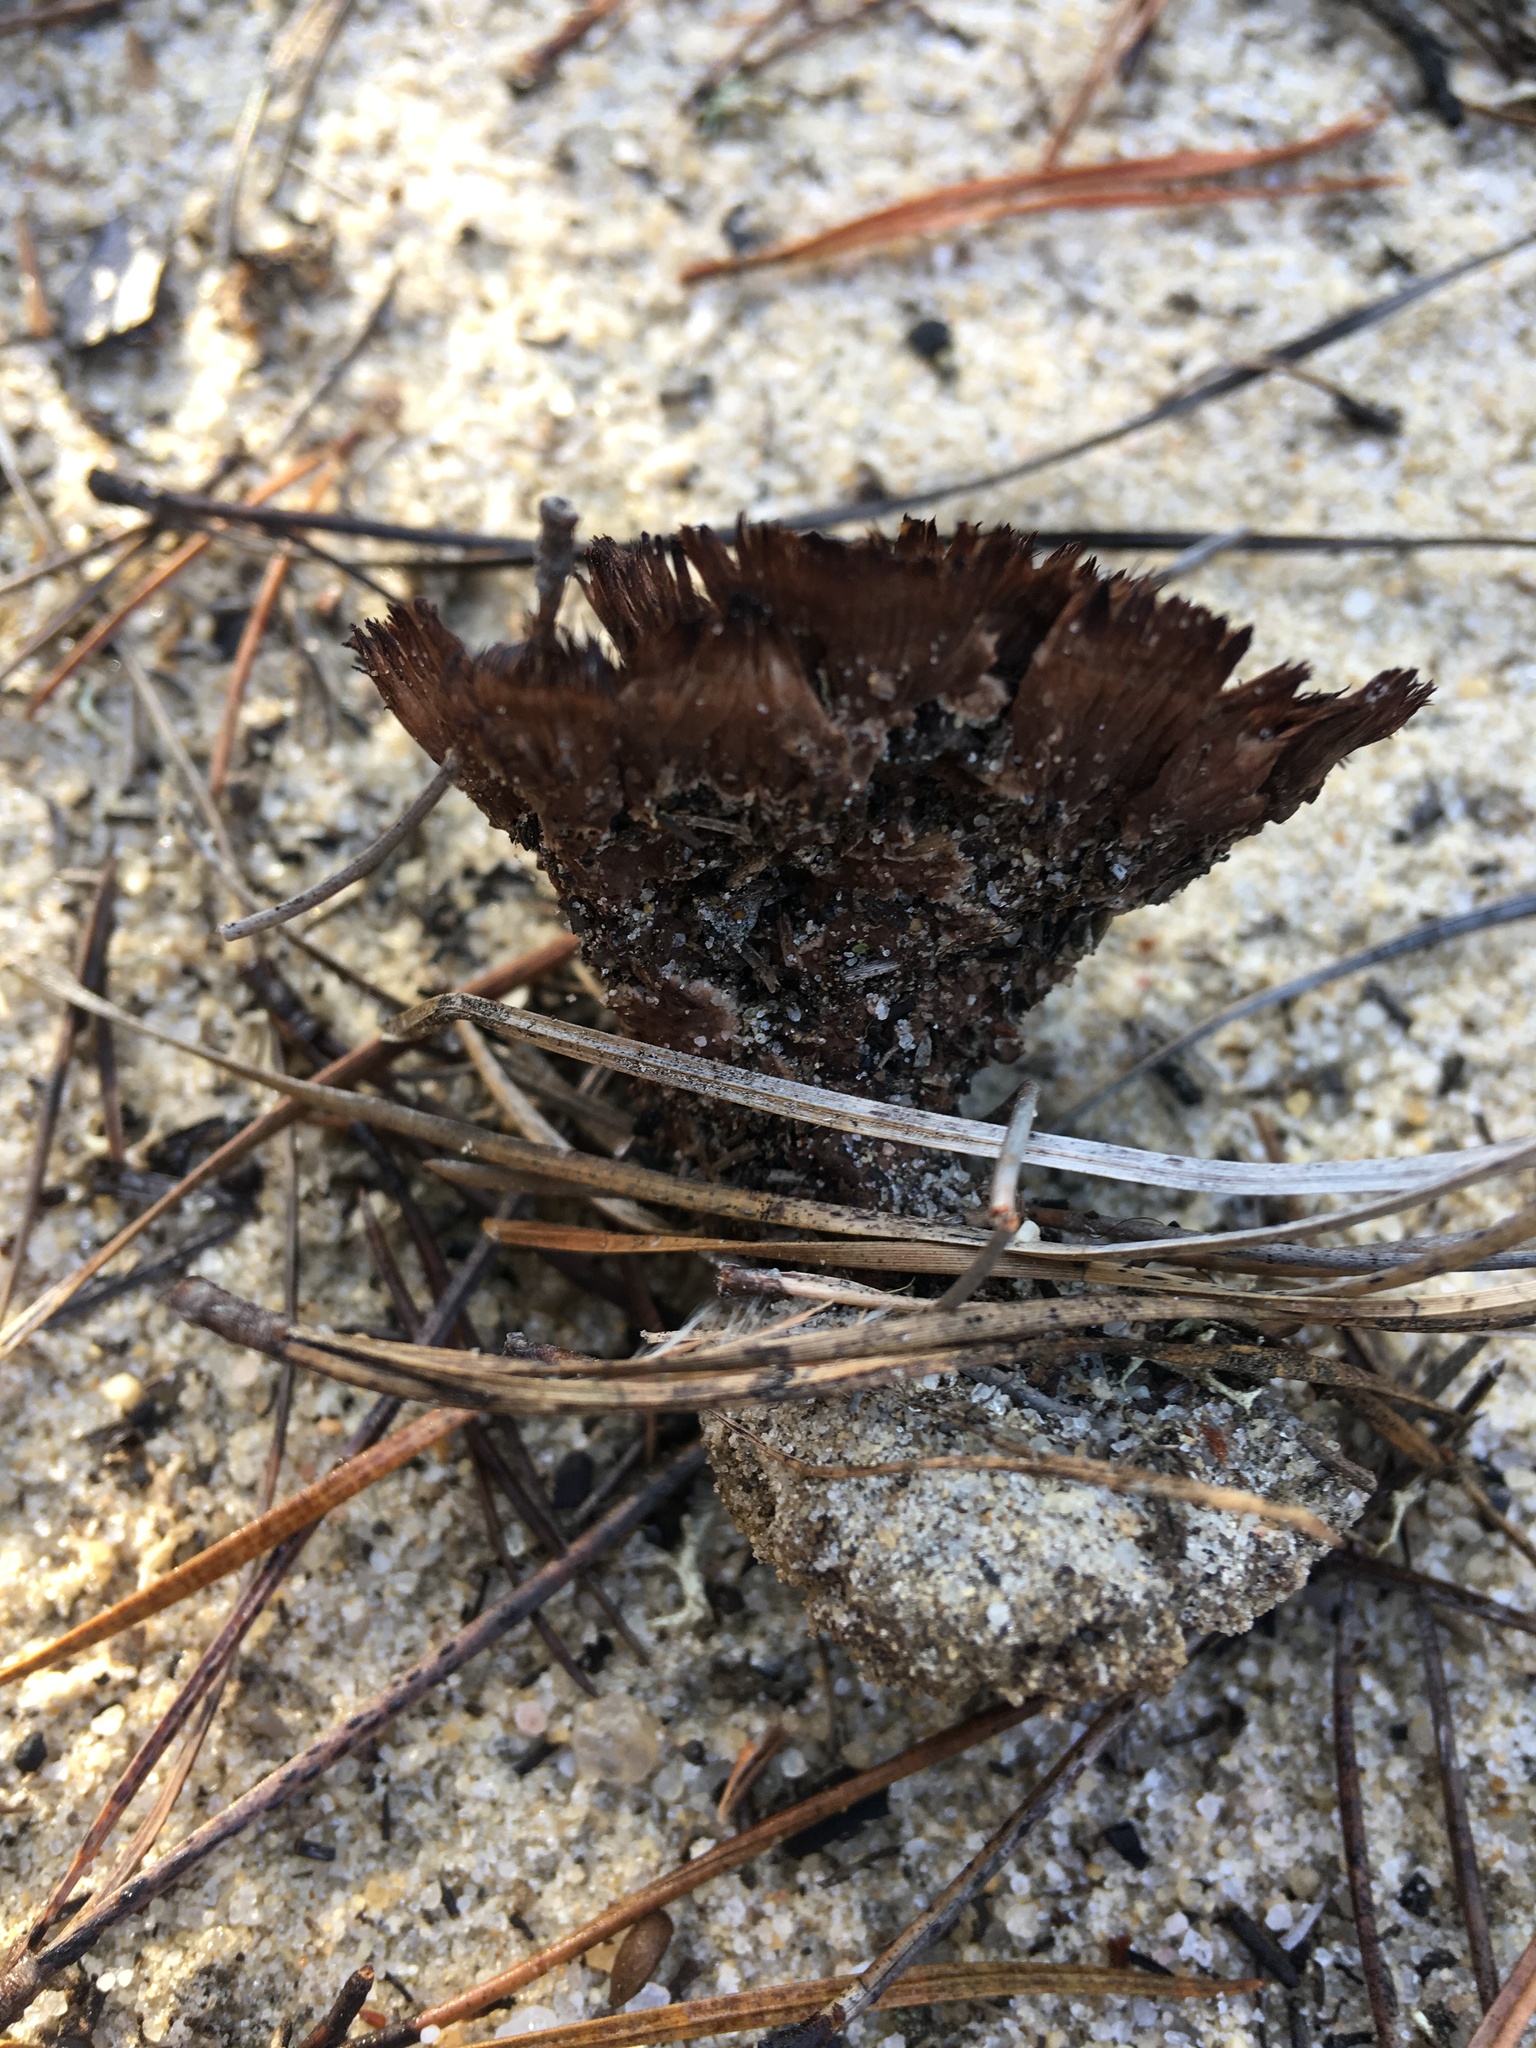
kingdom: Fungi
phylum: Basidiomycota
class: Agaricomycetes
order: Thelephorales
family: Thelephoraceae
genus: Thelephora
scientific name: Thelephora terrestris
